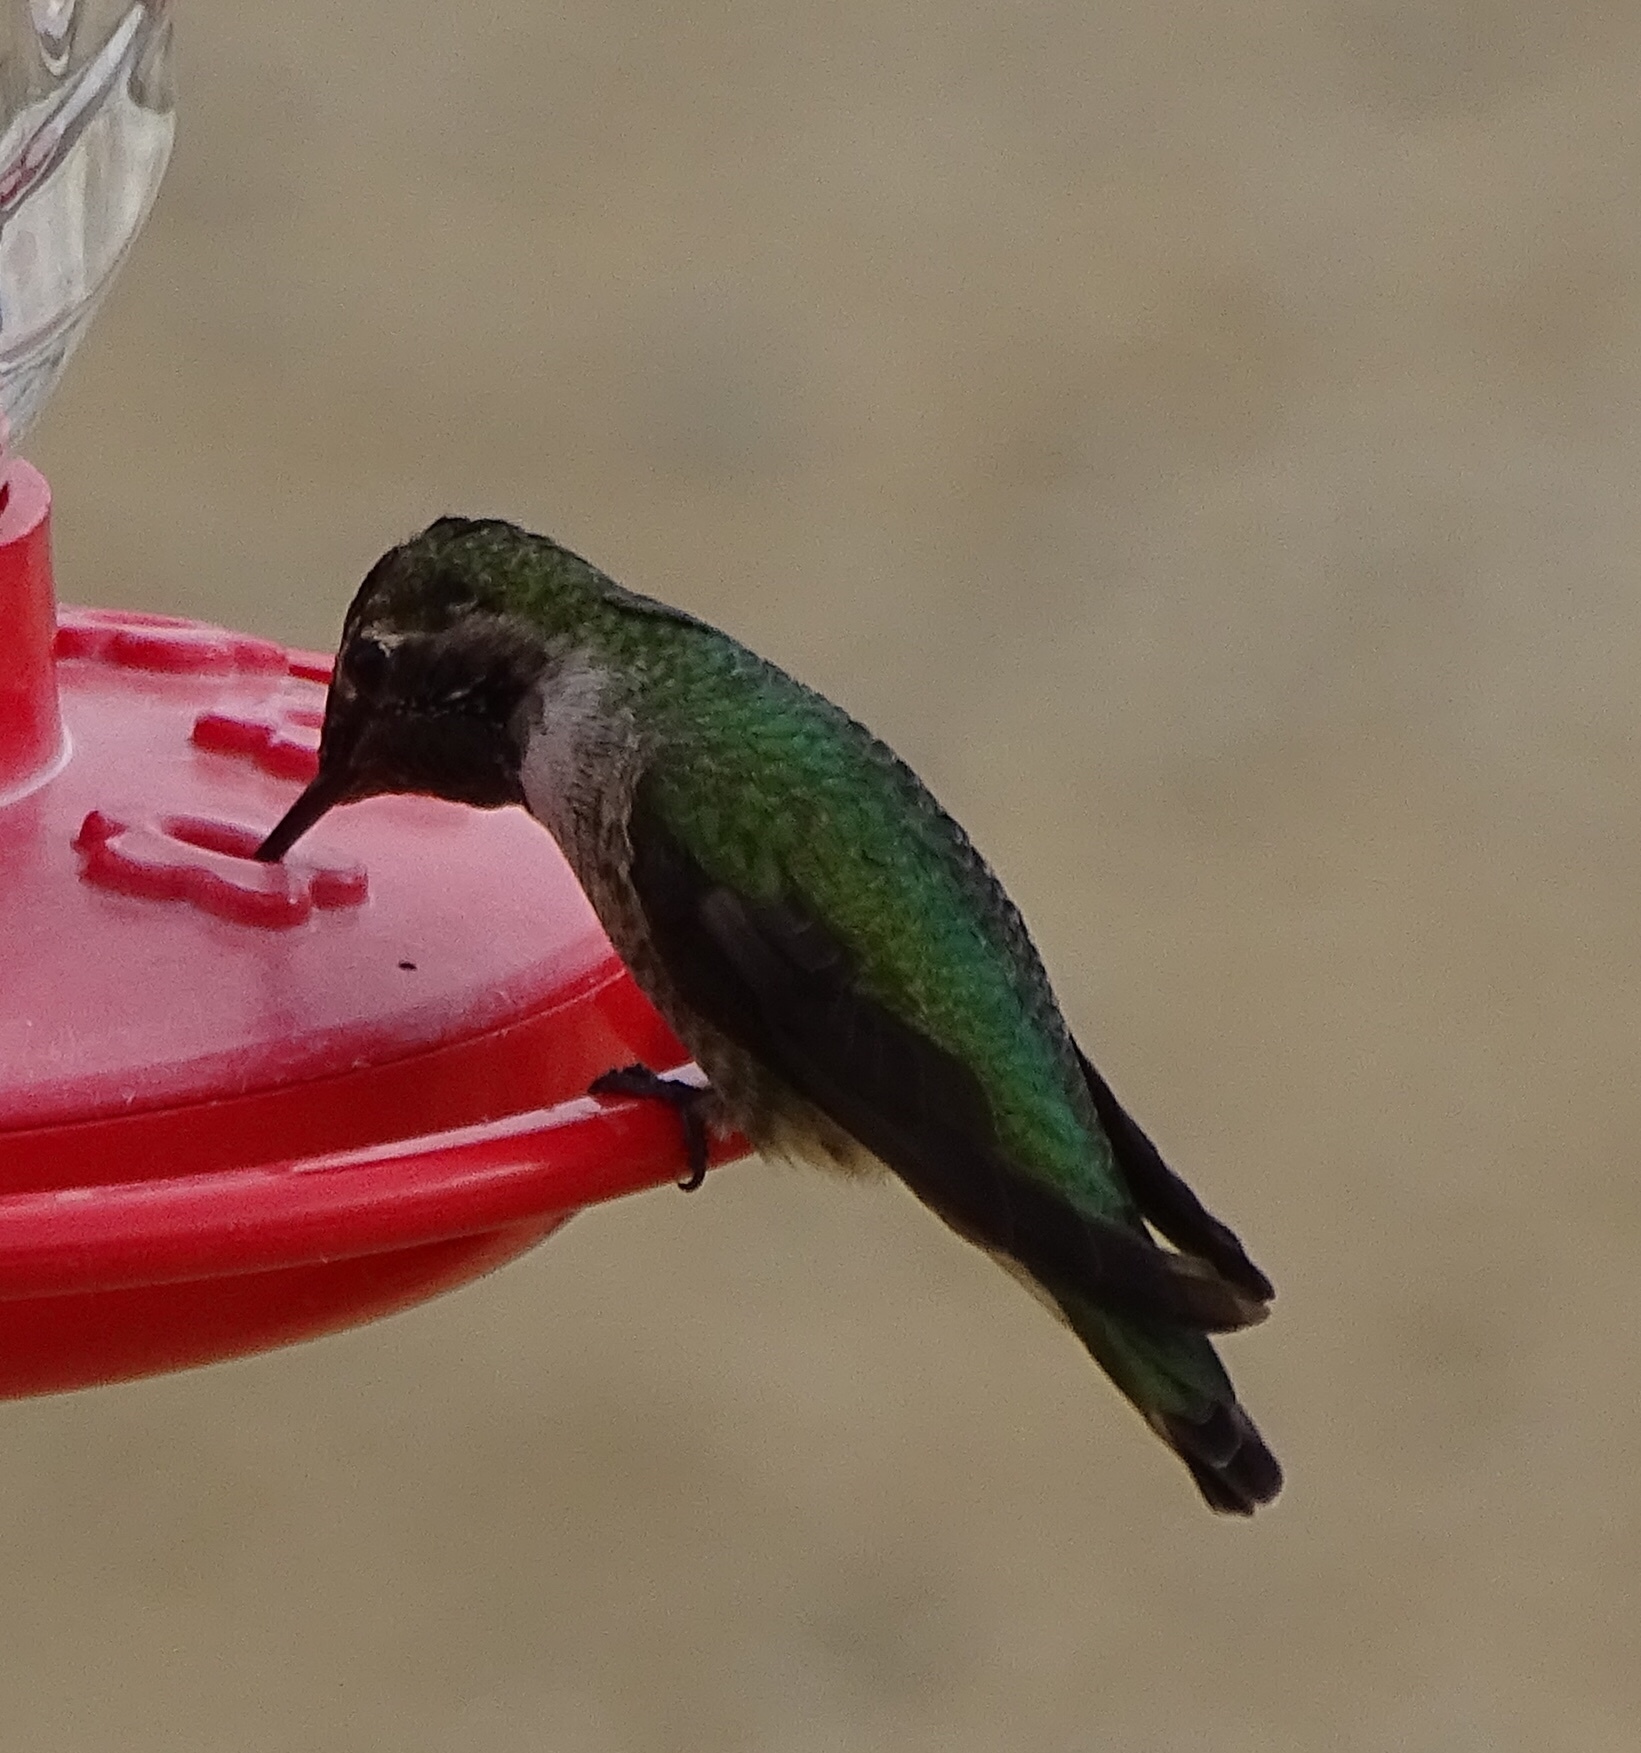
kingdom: Animalia
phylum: Chordata
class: Aves
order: Apodiformes
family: Trochilidae
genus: Calypte
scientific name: Calypte anna
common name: Anna's hummingbird
